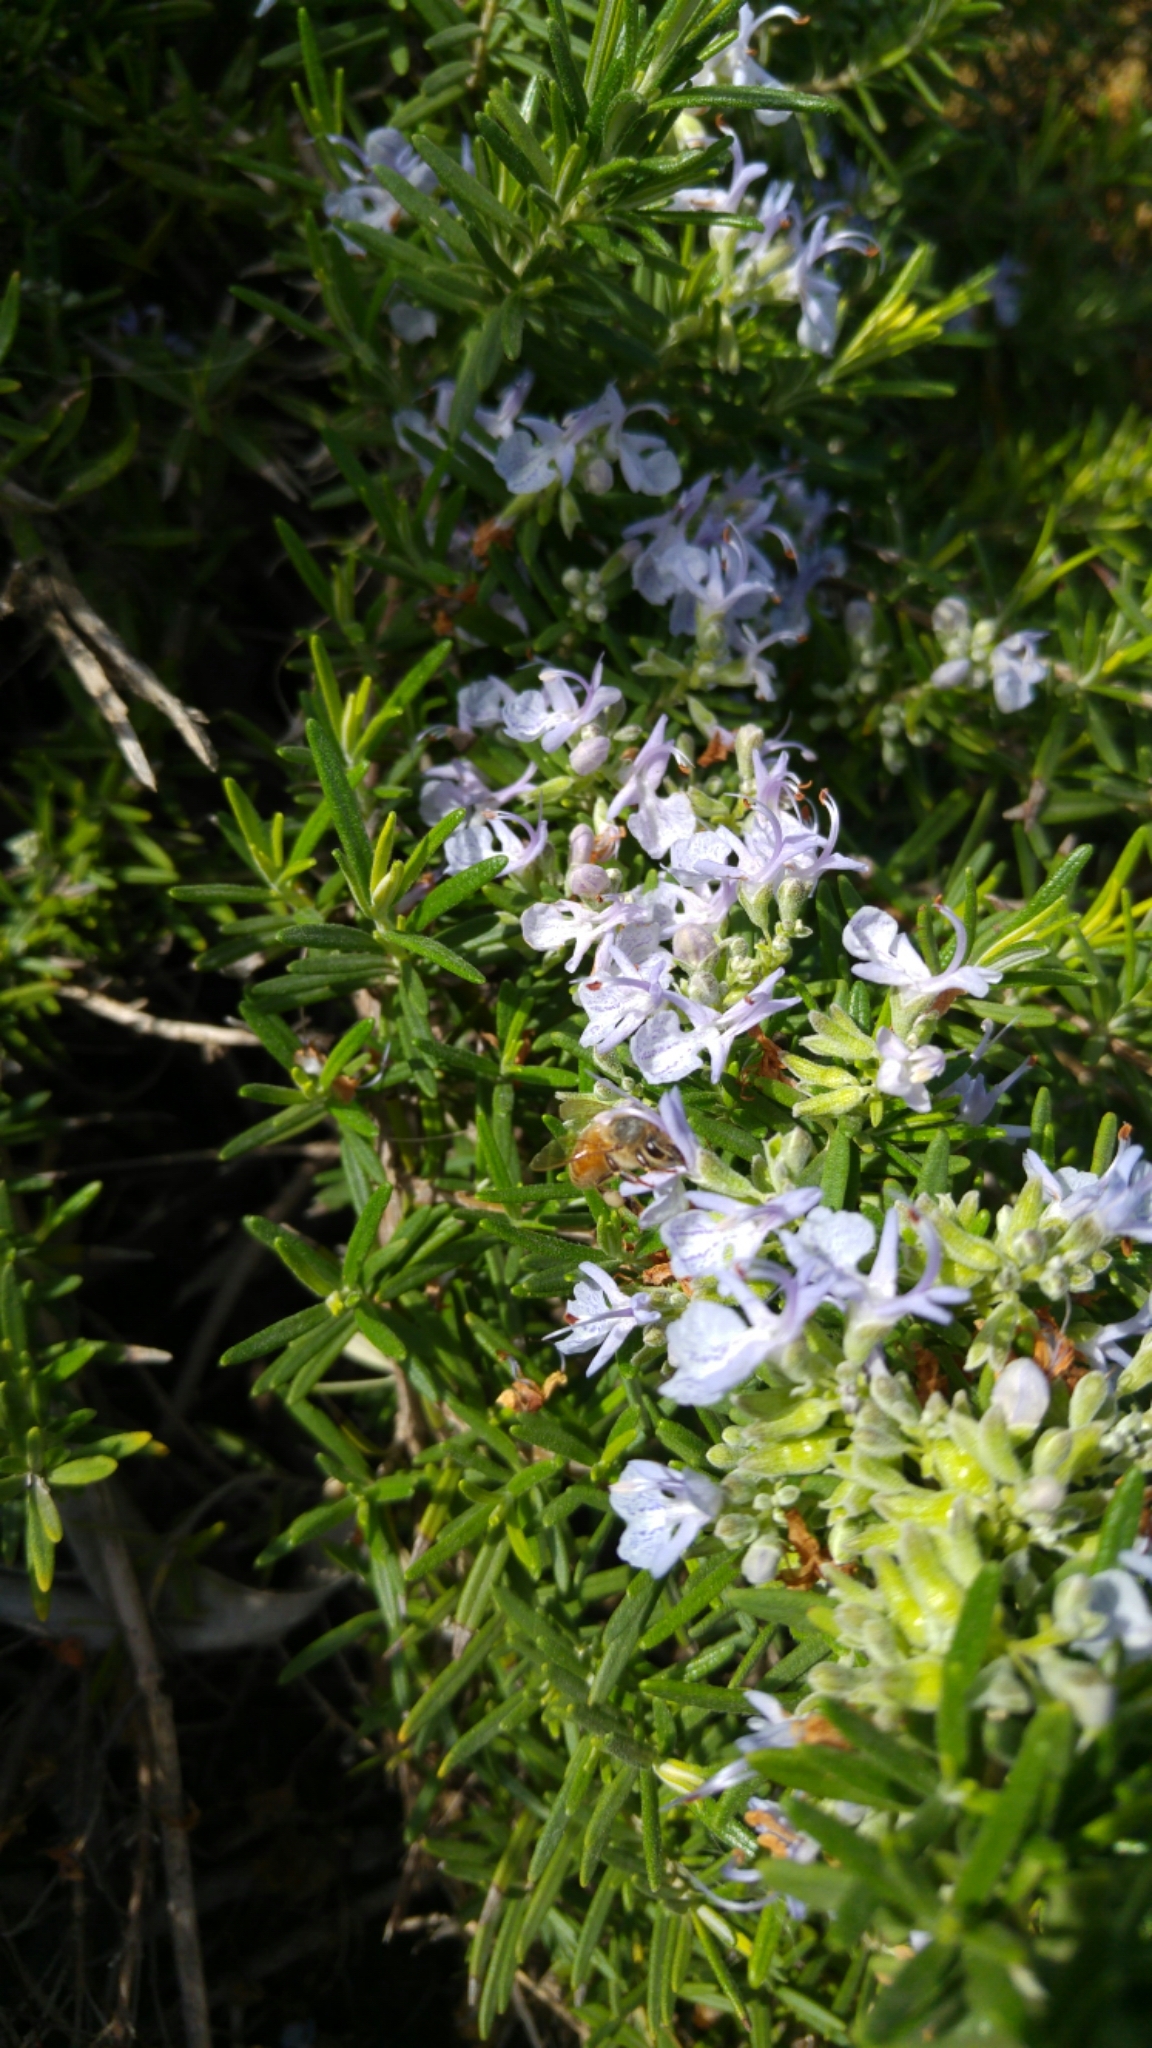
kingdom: Animalia
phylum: Arthropoda
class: Insecta
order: Hymenoptera
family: Apidae
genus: Apis
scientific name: Apis mellifera
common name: Honey bee
